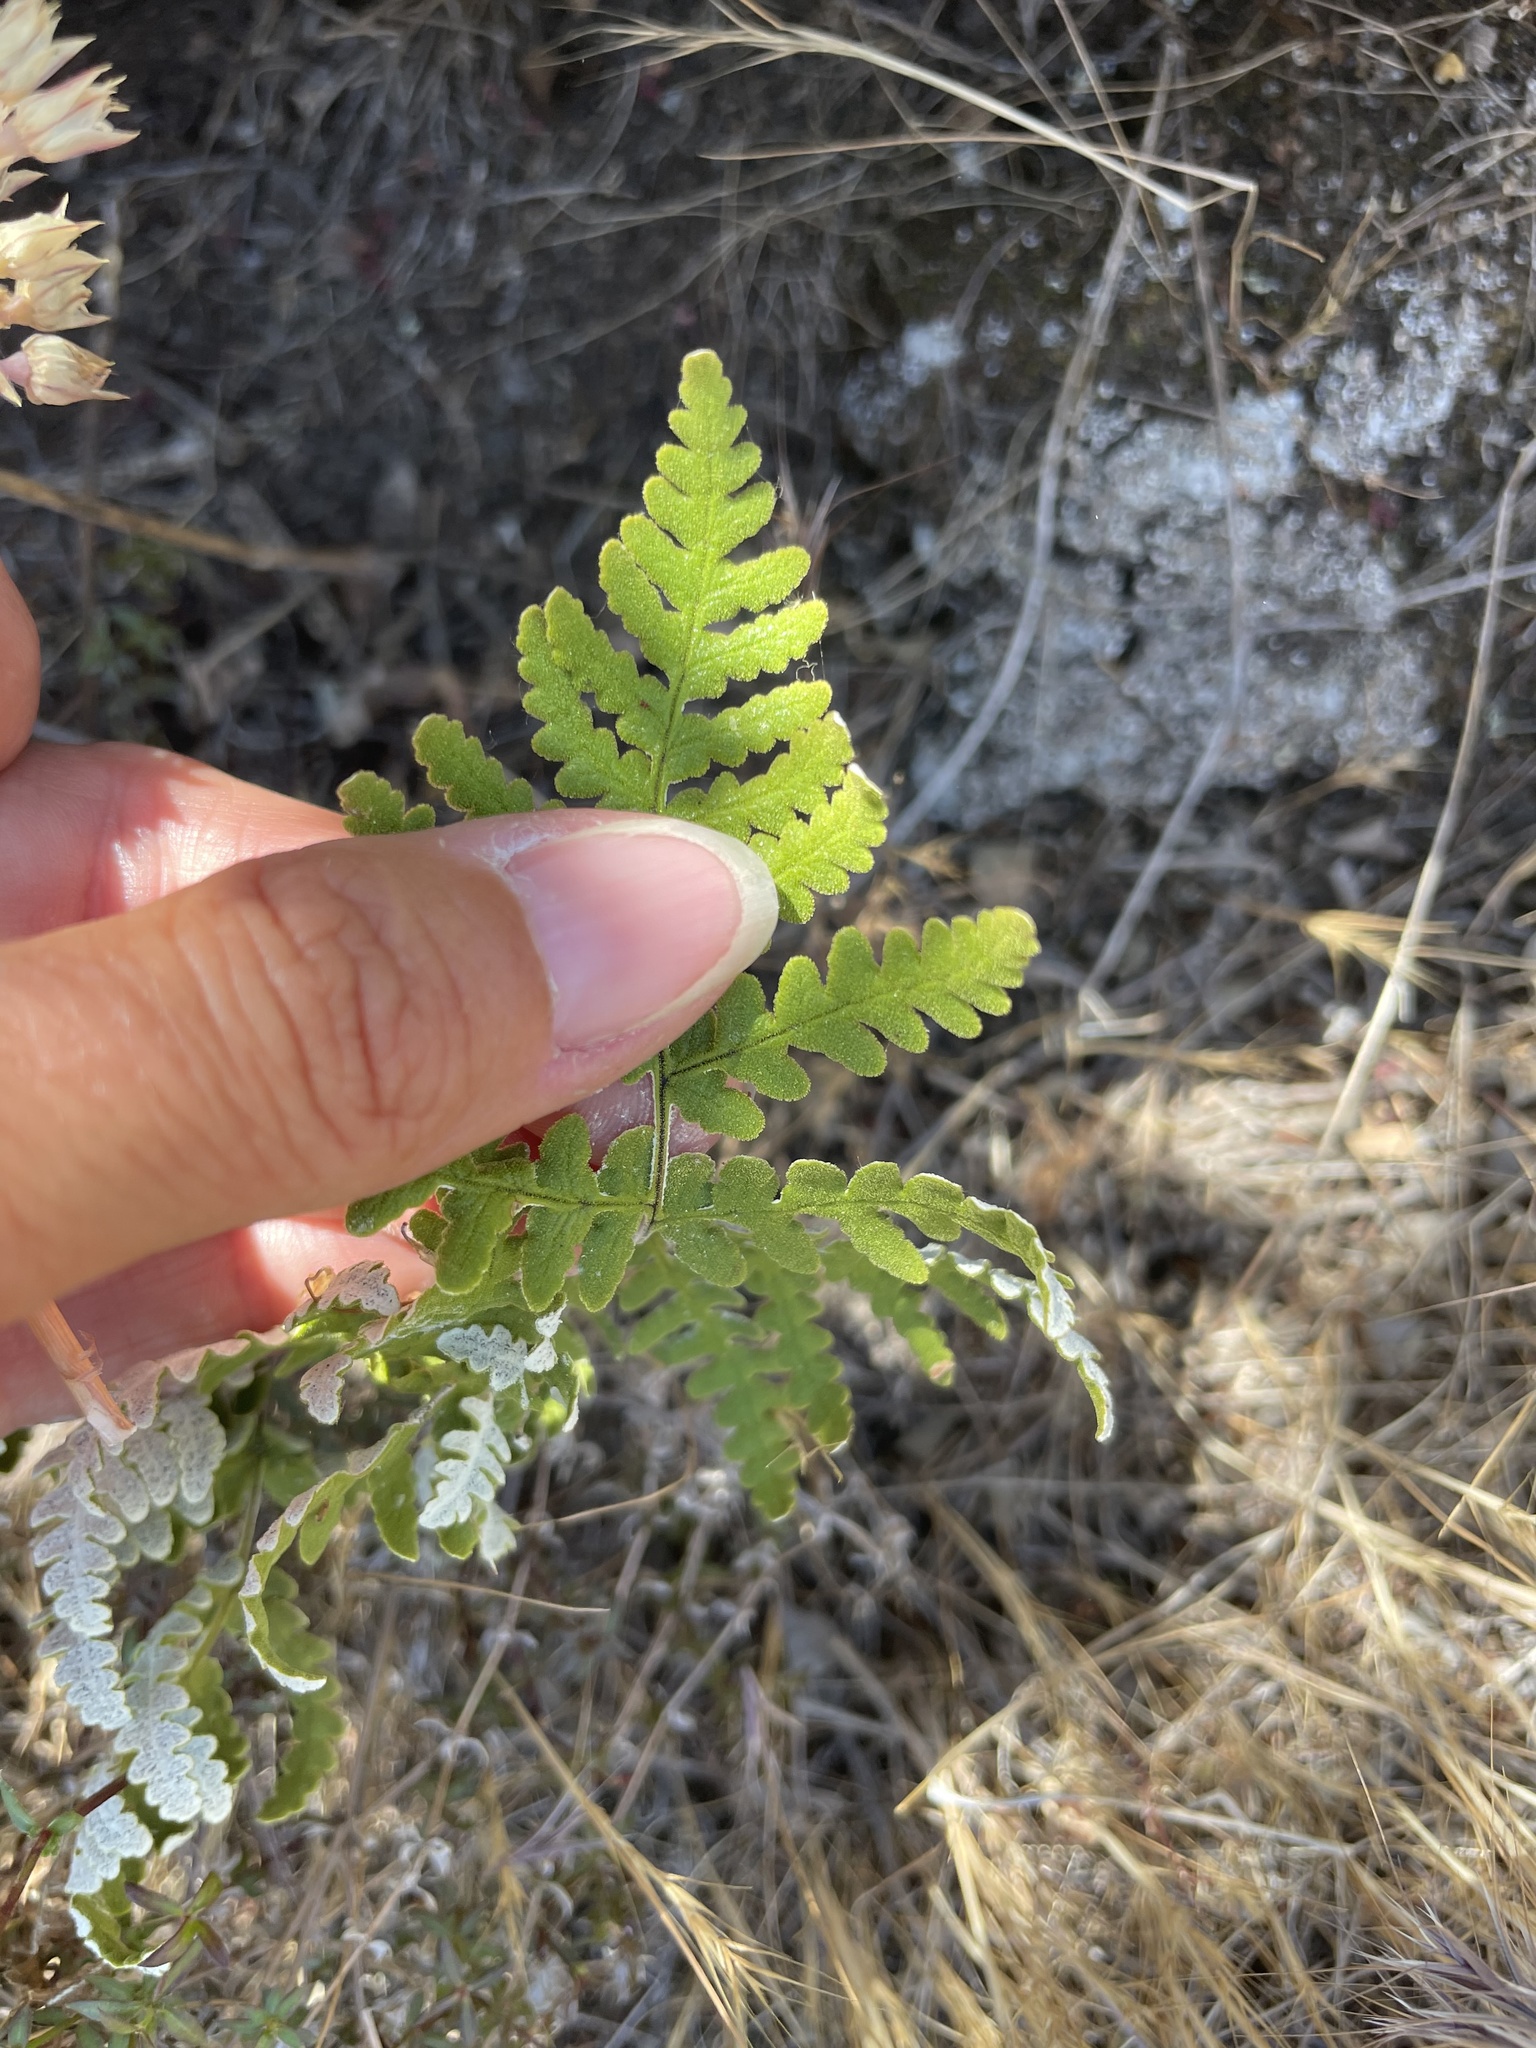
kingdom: Plantae
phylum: Tracheophyta
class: Polypodiopsida
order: Polypodiales
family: Pteridaceae
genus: Pentagramma
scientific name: Pentagramma glanduloviscida
